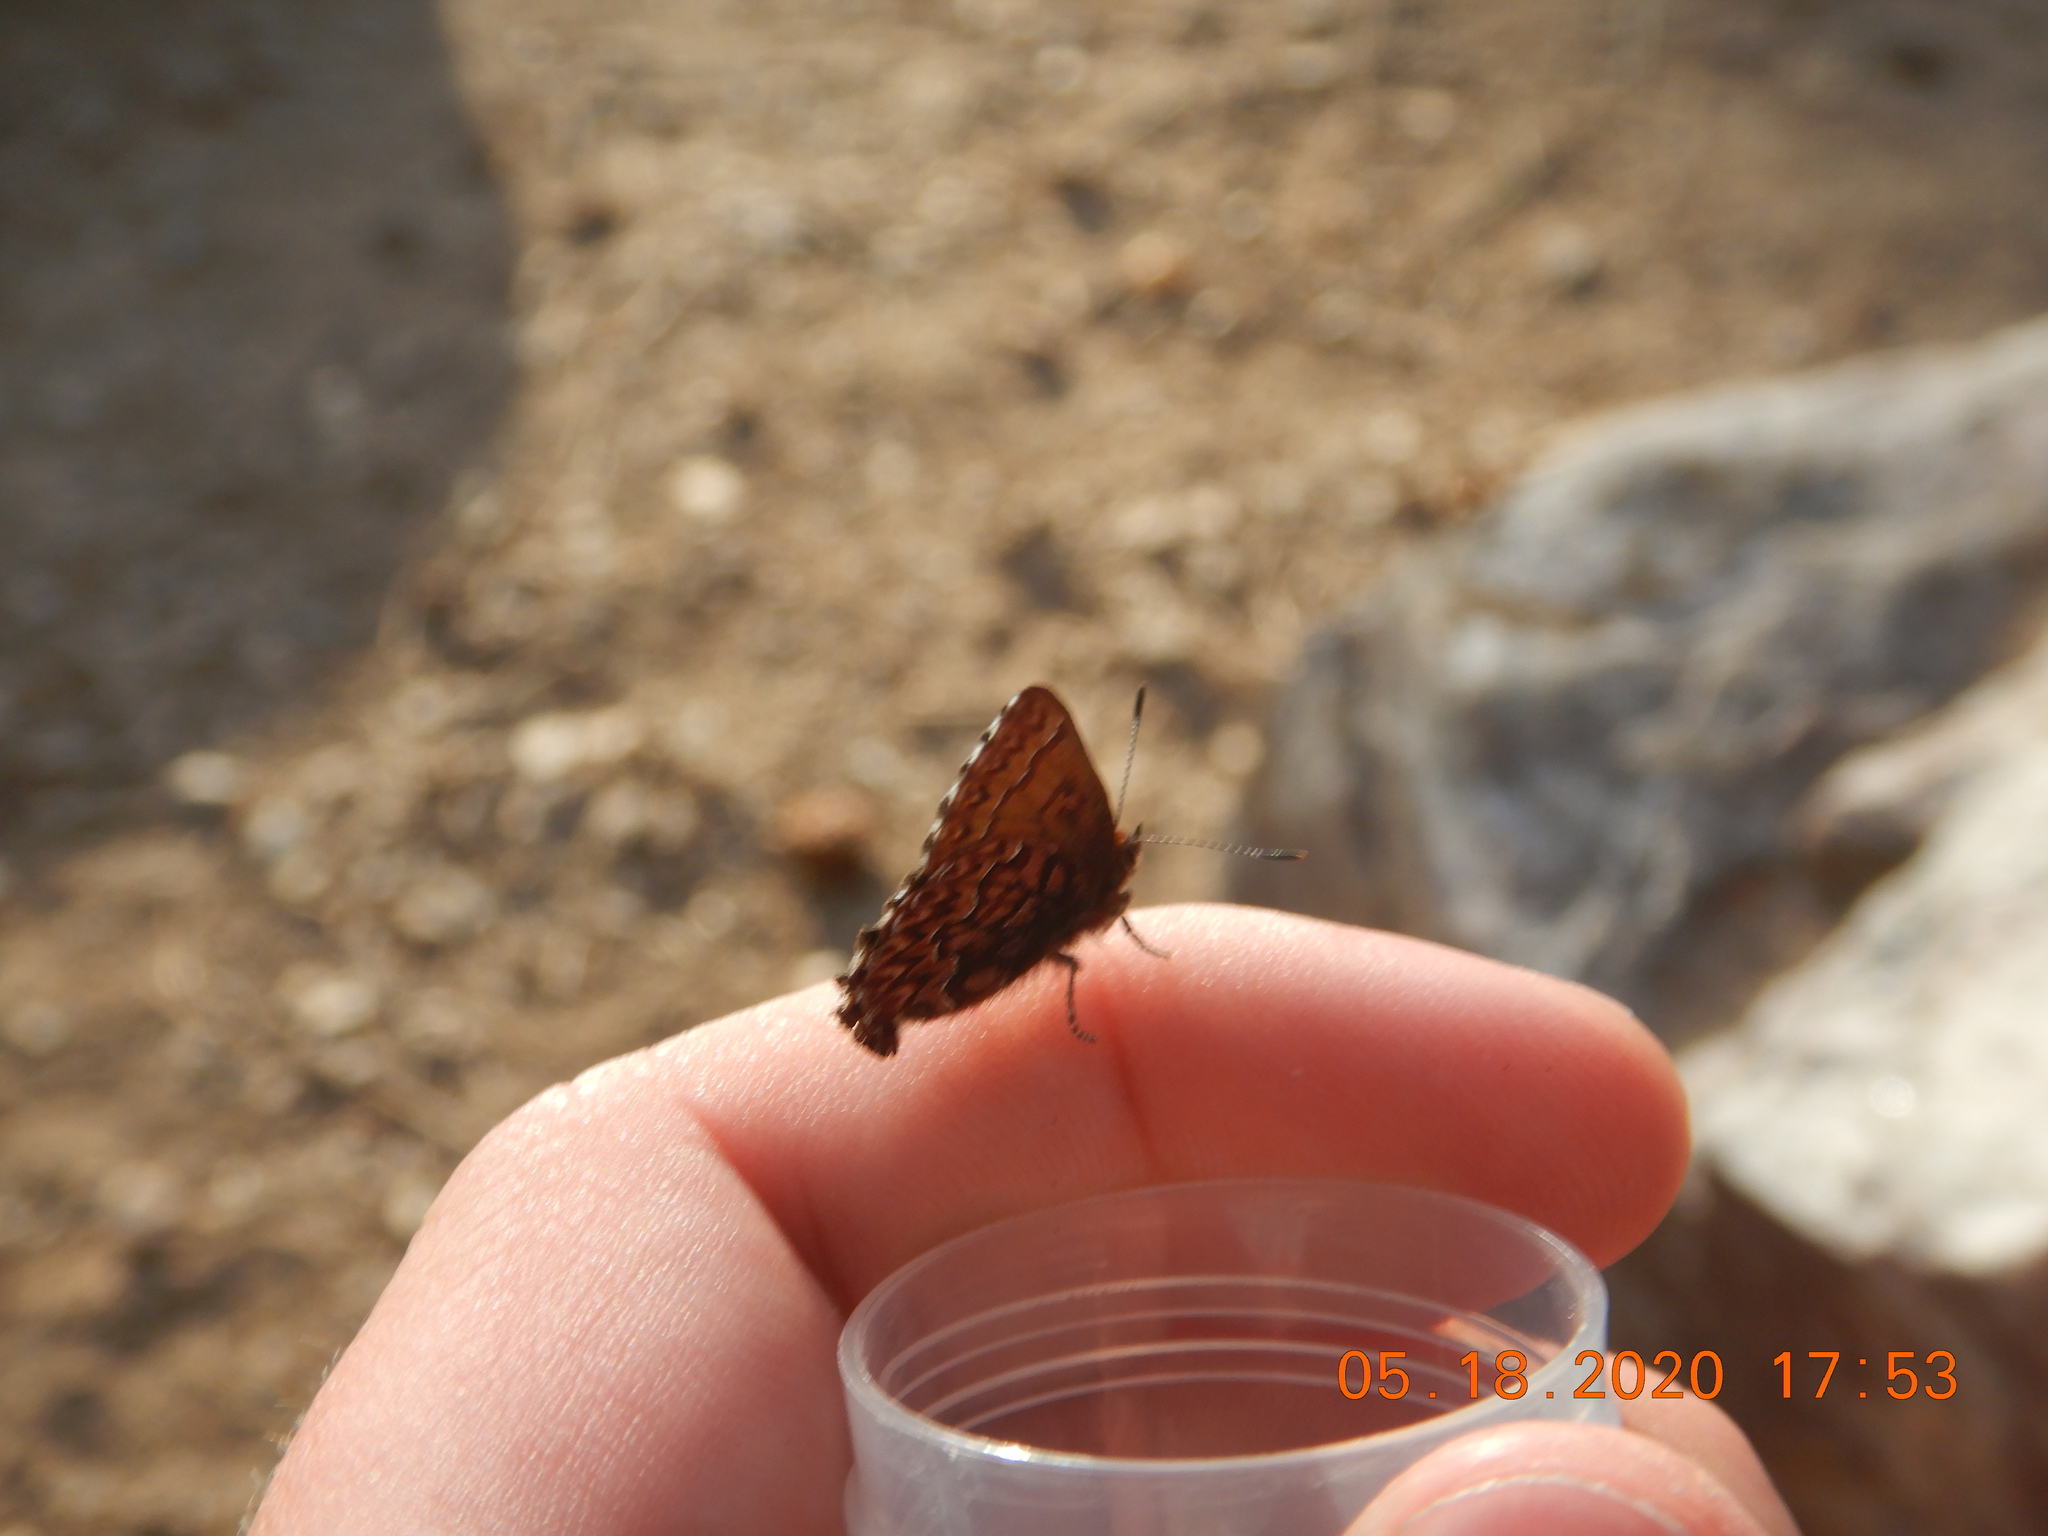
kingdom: Animalia
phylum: Arthropoda
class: Insecta
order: Lepidoptera
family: Lycaenidae
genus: Incisalia
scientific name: Incisalia eryphon
